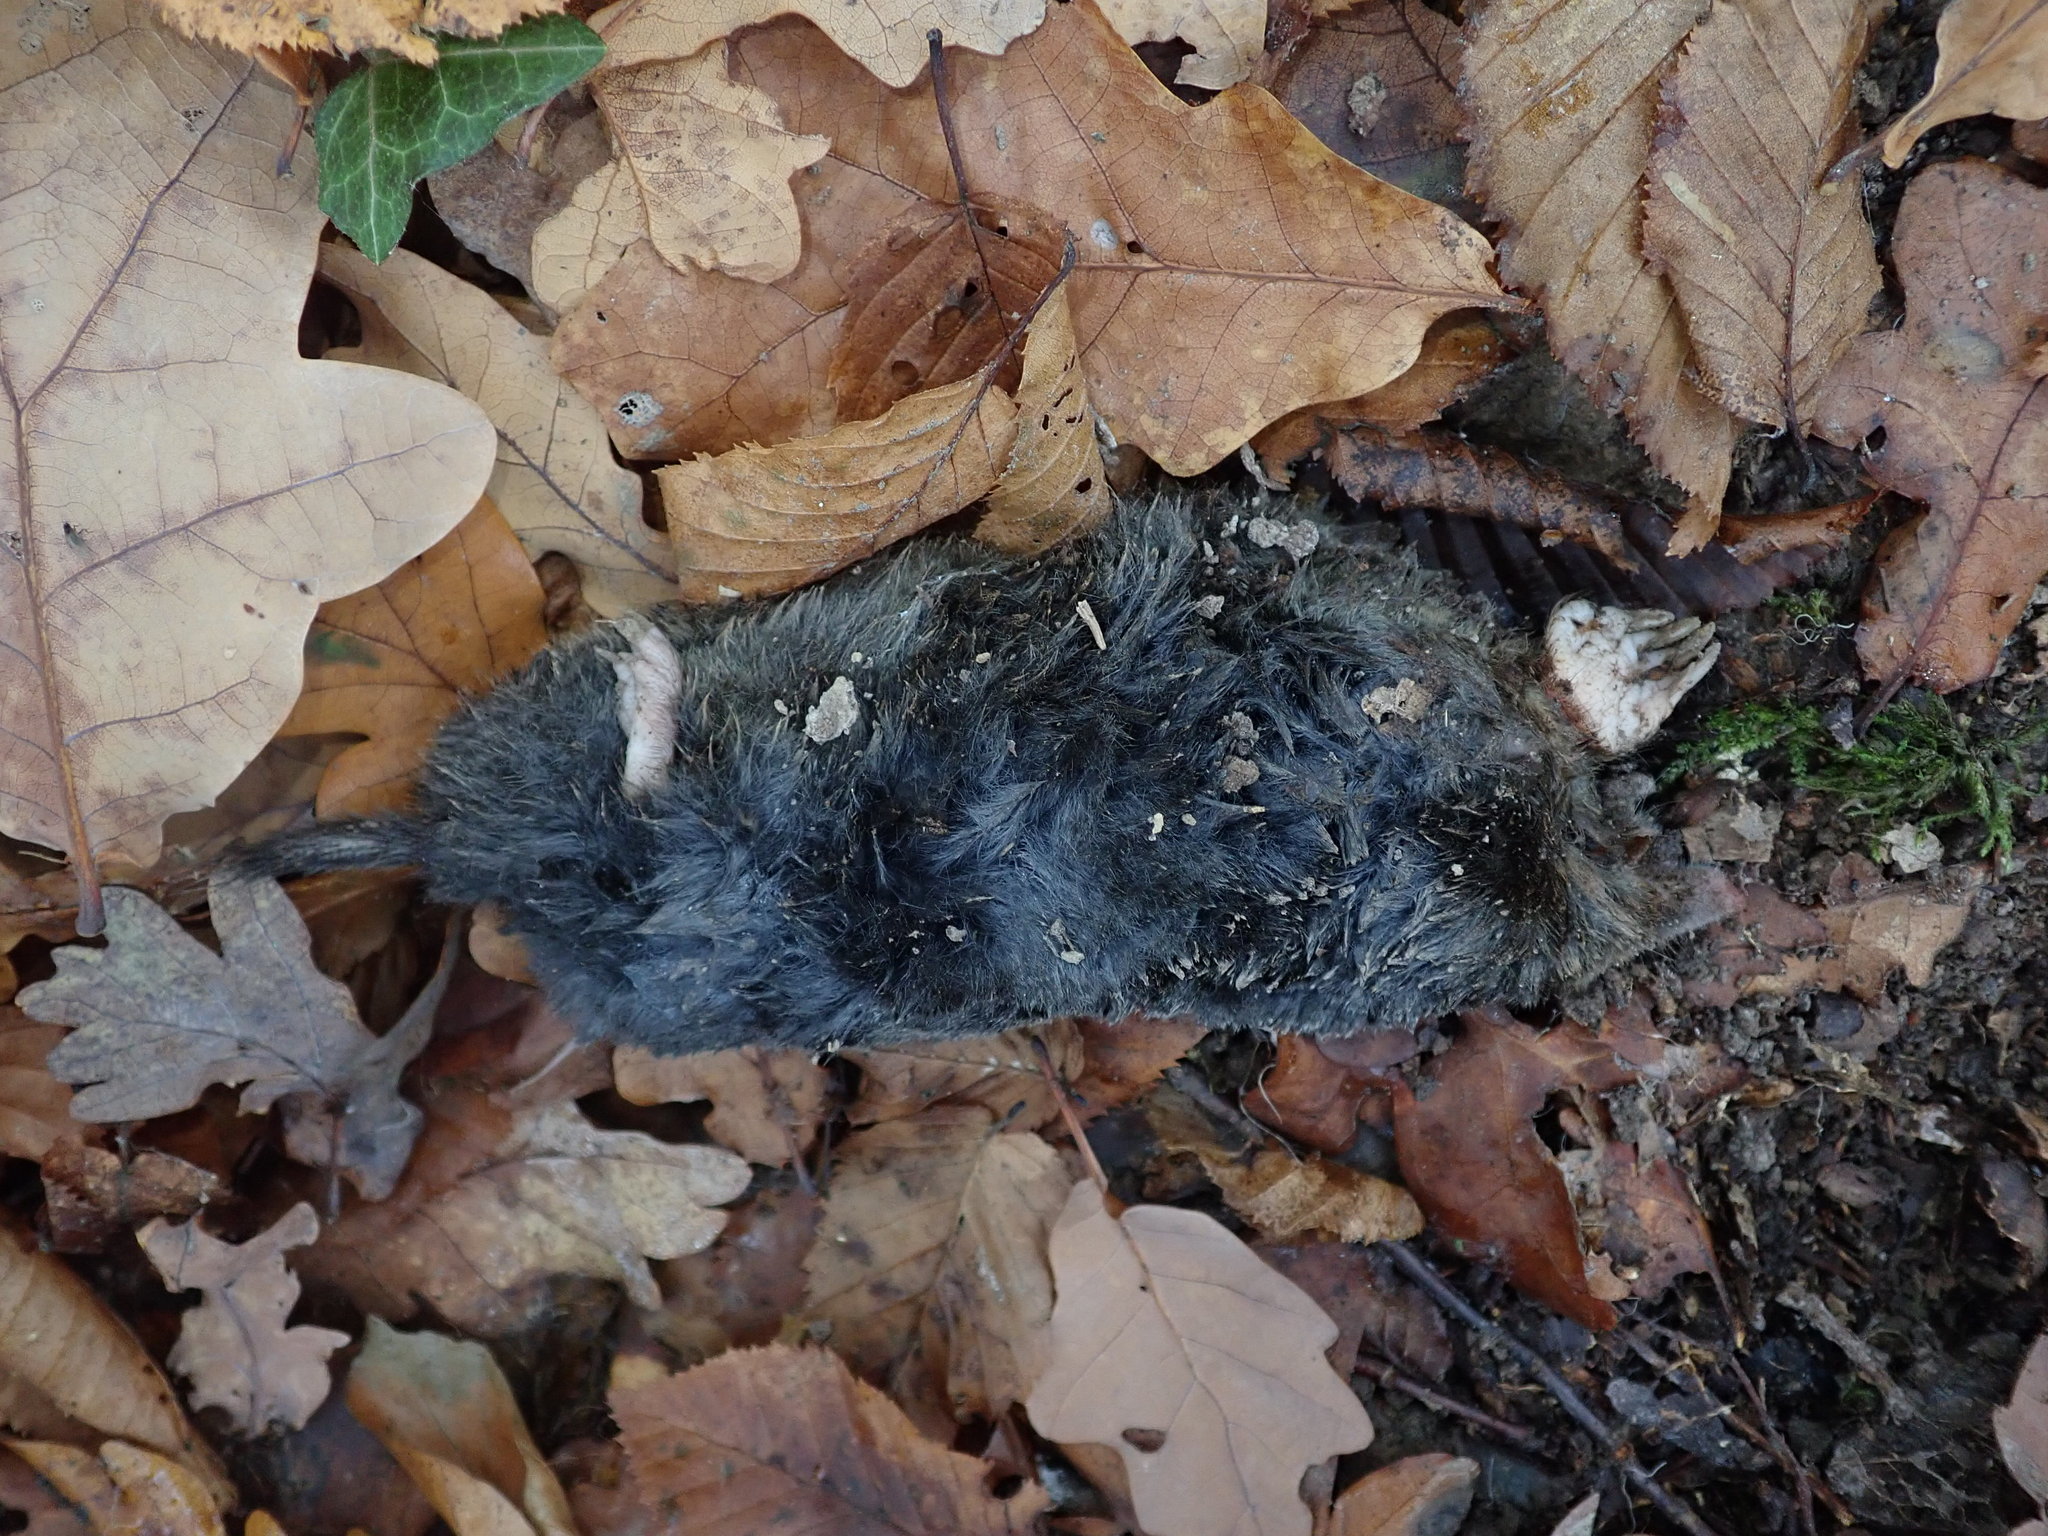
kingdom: Animalia
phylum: Chordata
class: Mammalia
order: Soricomorpha
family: Talpidae
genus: Talpa
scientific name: Talpa europaea
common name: European mole
